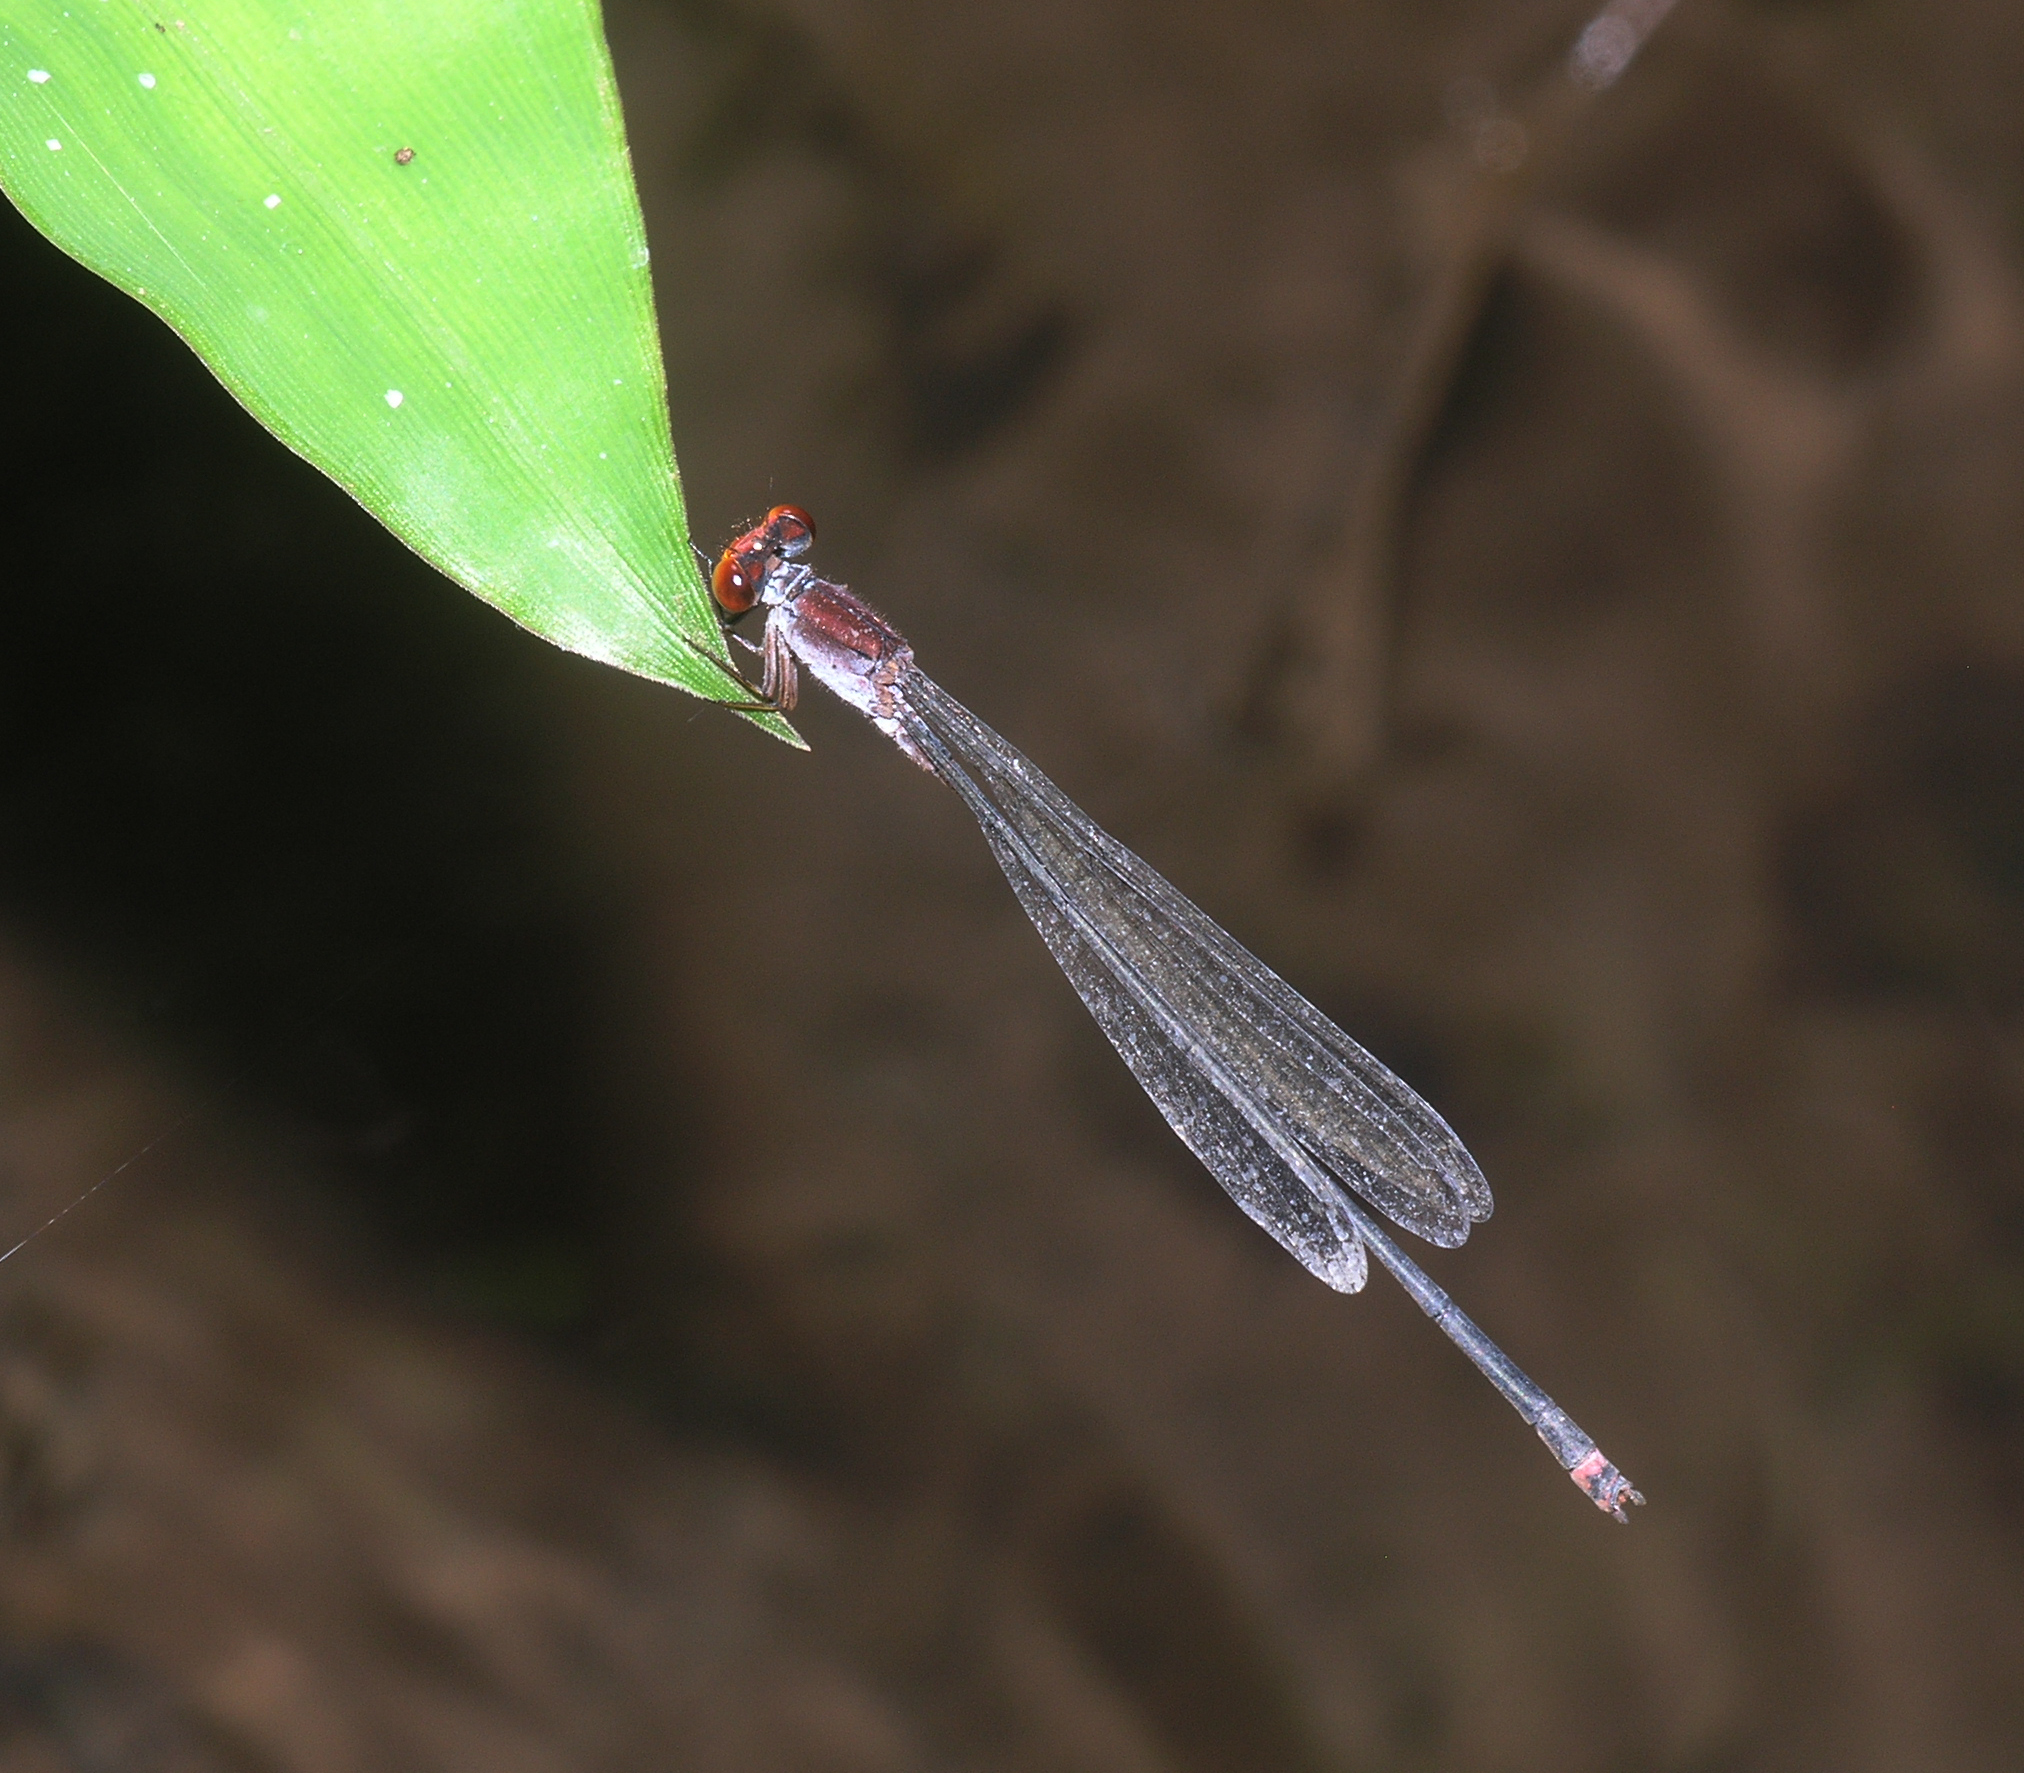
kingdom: Animalia
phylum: Arthropoda
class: Insecta
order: Odonata
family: Coenagrionidae
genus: Pseudagrion
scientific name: Pseudagrion pruinosum
